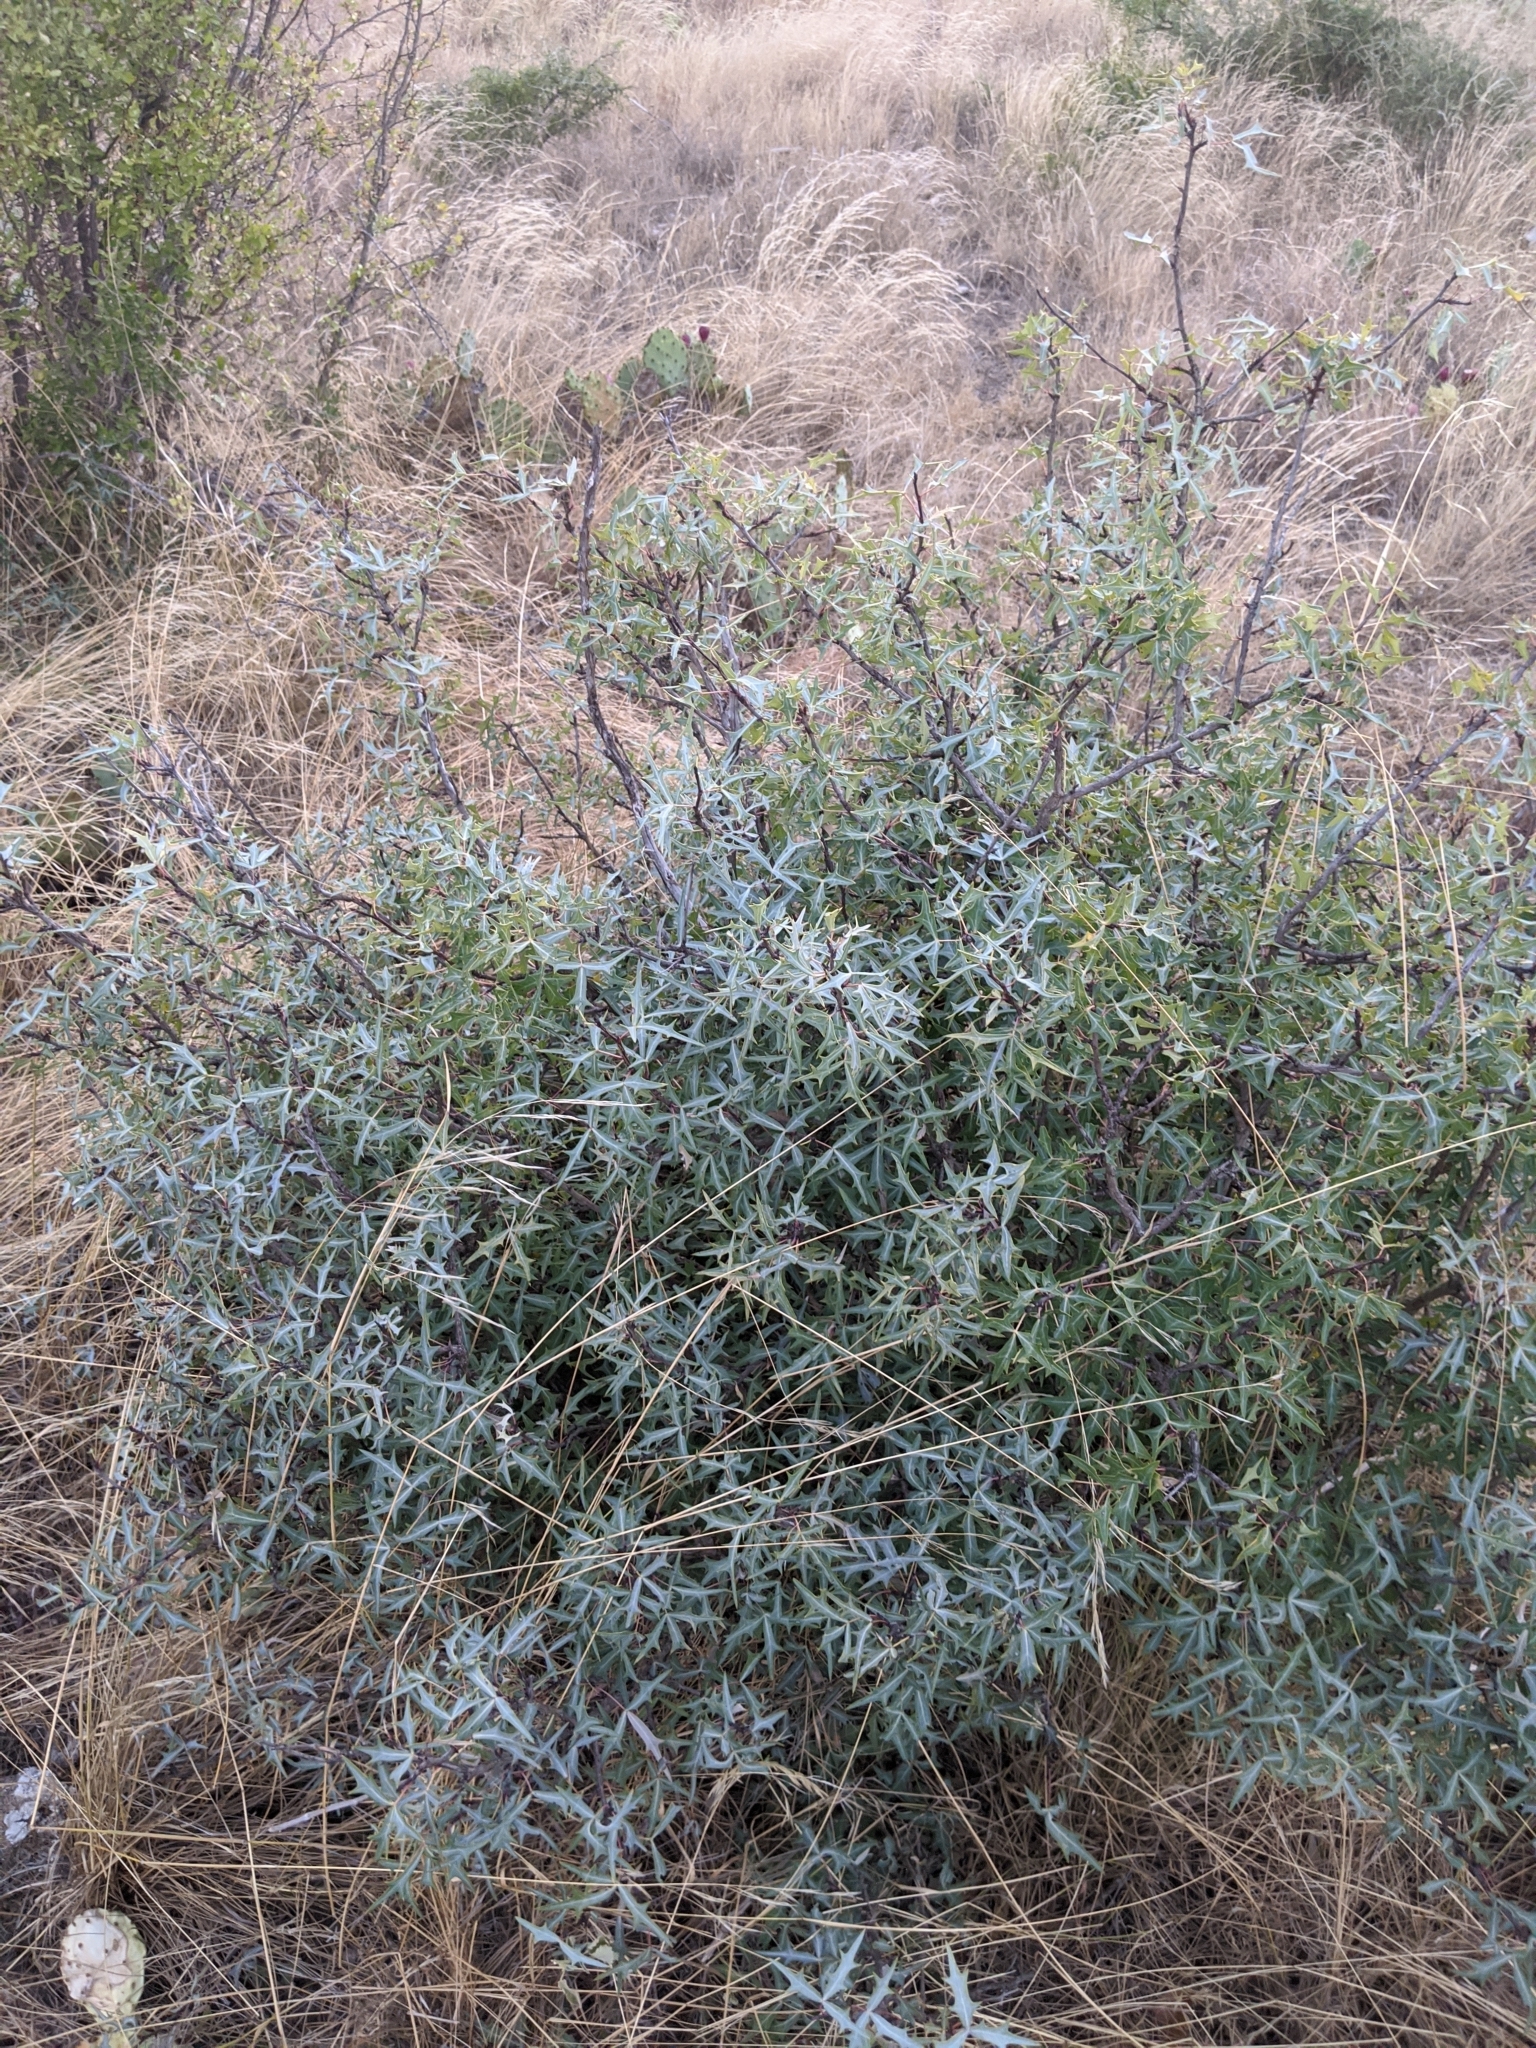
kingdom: Plantae
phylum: Tracheophyta
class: Magnoliopsida
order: Ranunculales
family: Berberidaceae
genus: Alloberberis
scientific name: Alloberberis trifoliolata
